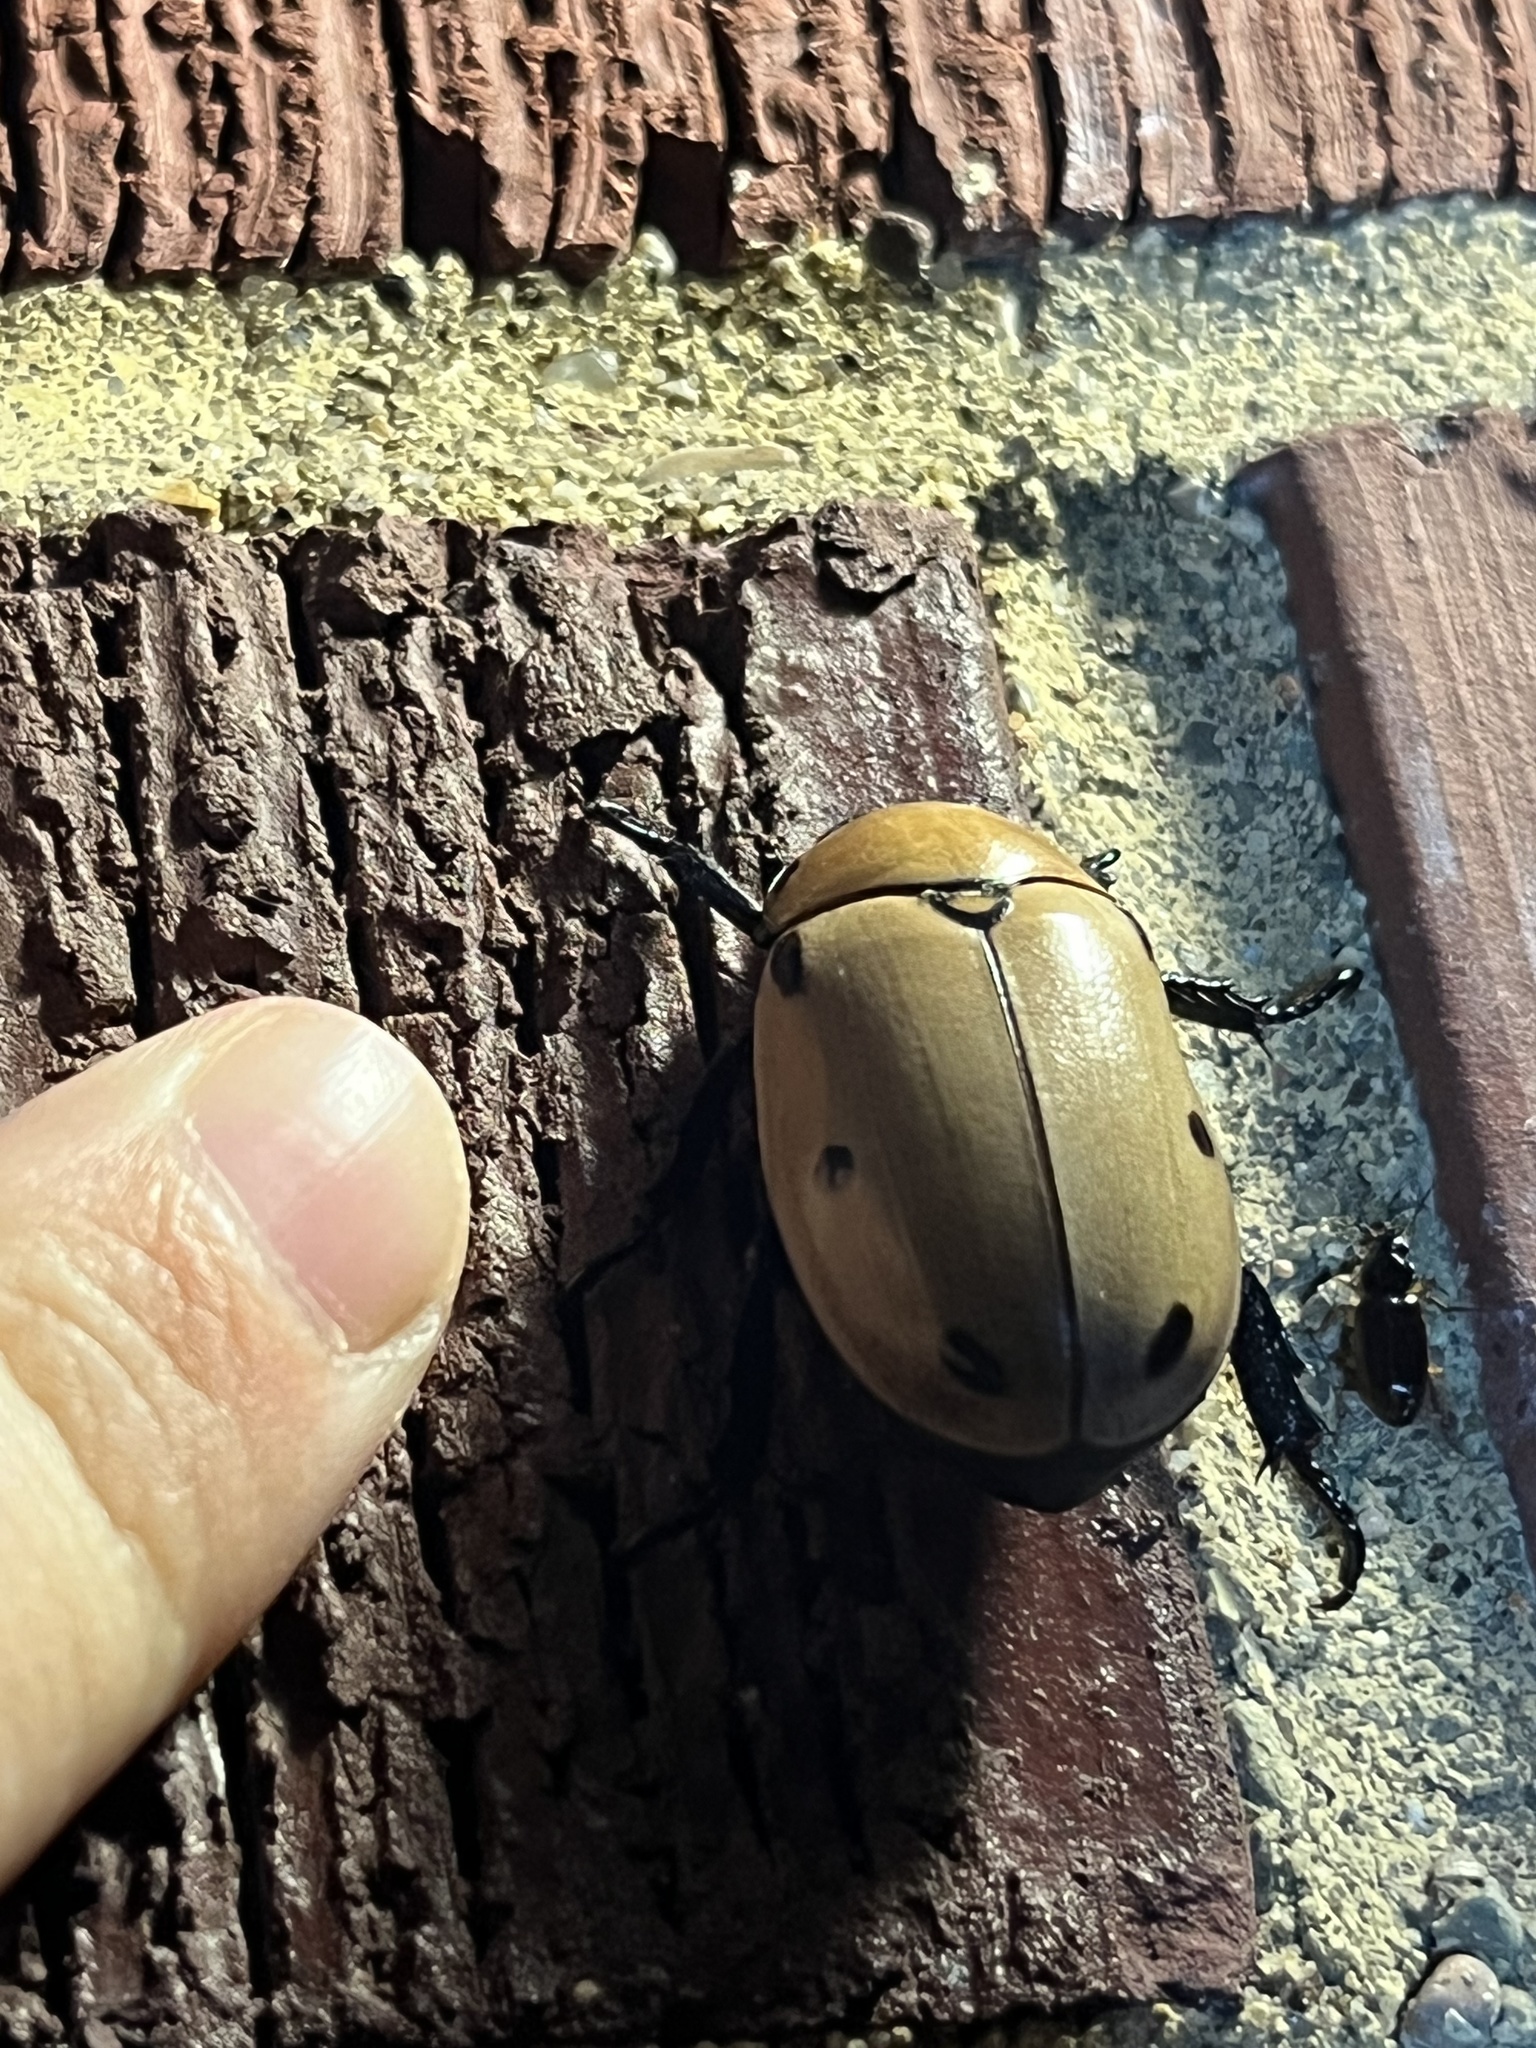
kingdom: Animalia
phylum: Arthropoda
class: Insecta
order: Coleoptera
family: Scarabaeidae
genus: Pelidnota
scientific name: Pelidnota punctata
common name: Grapevine beetle
